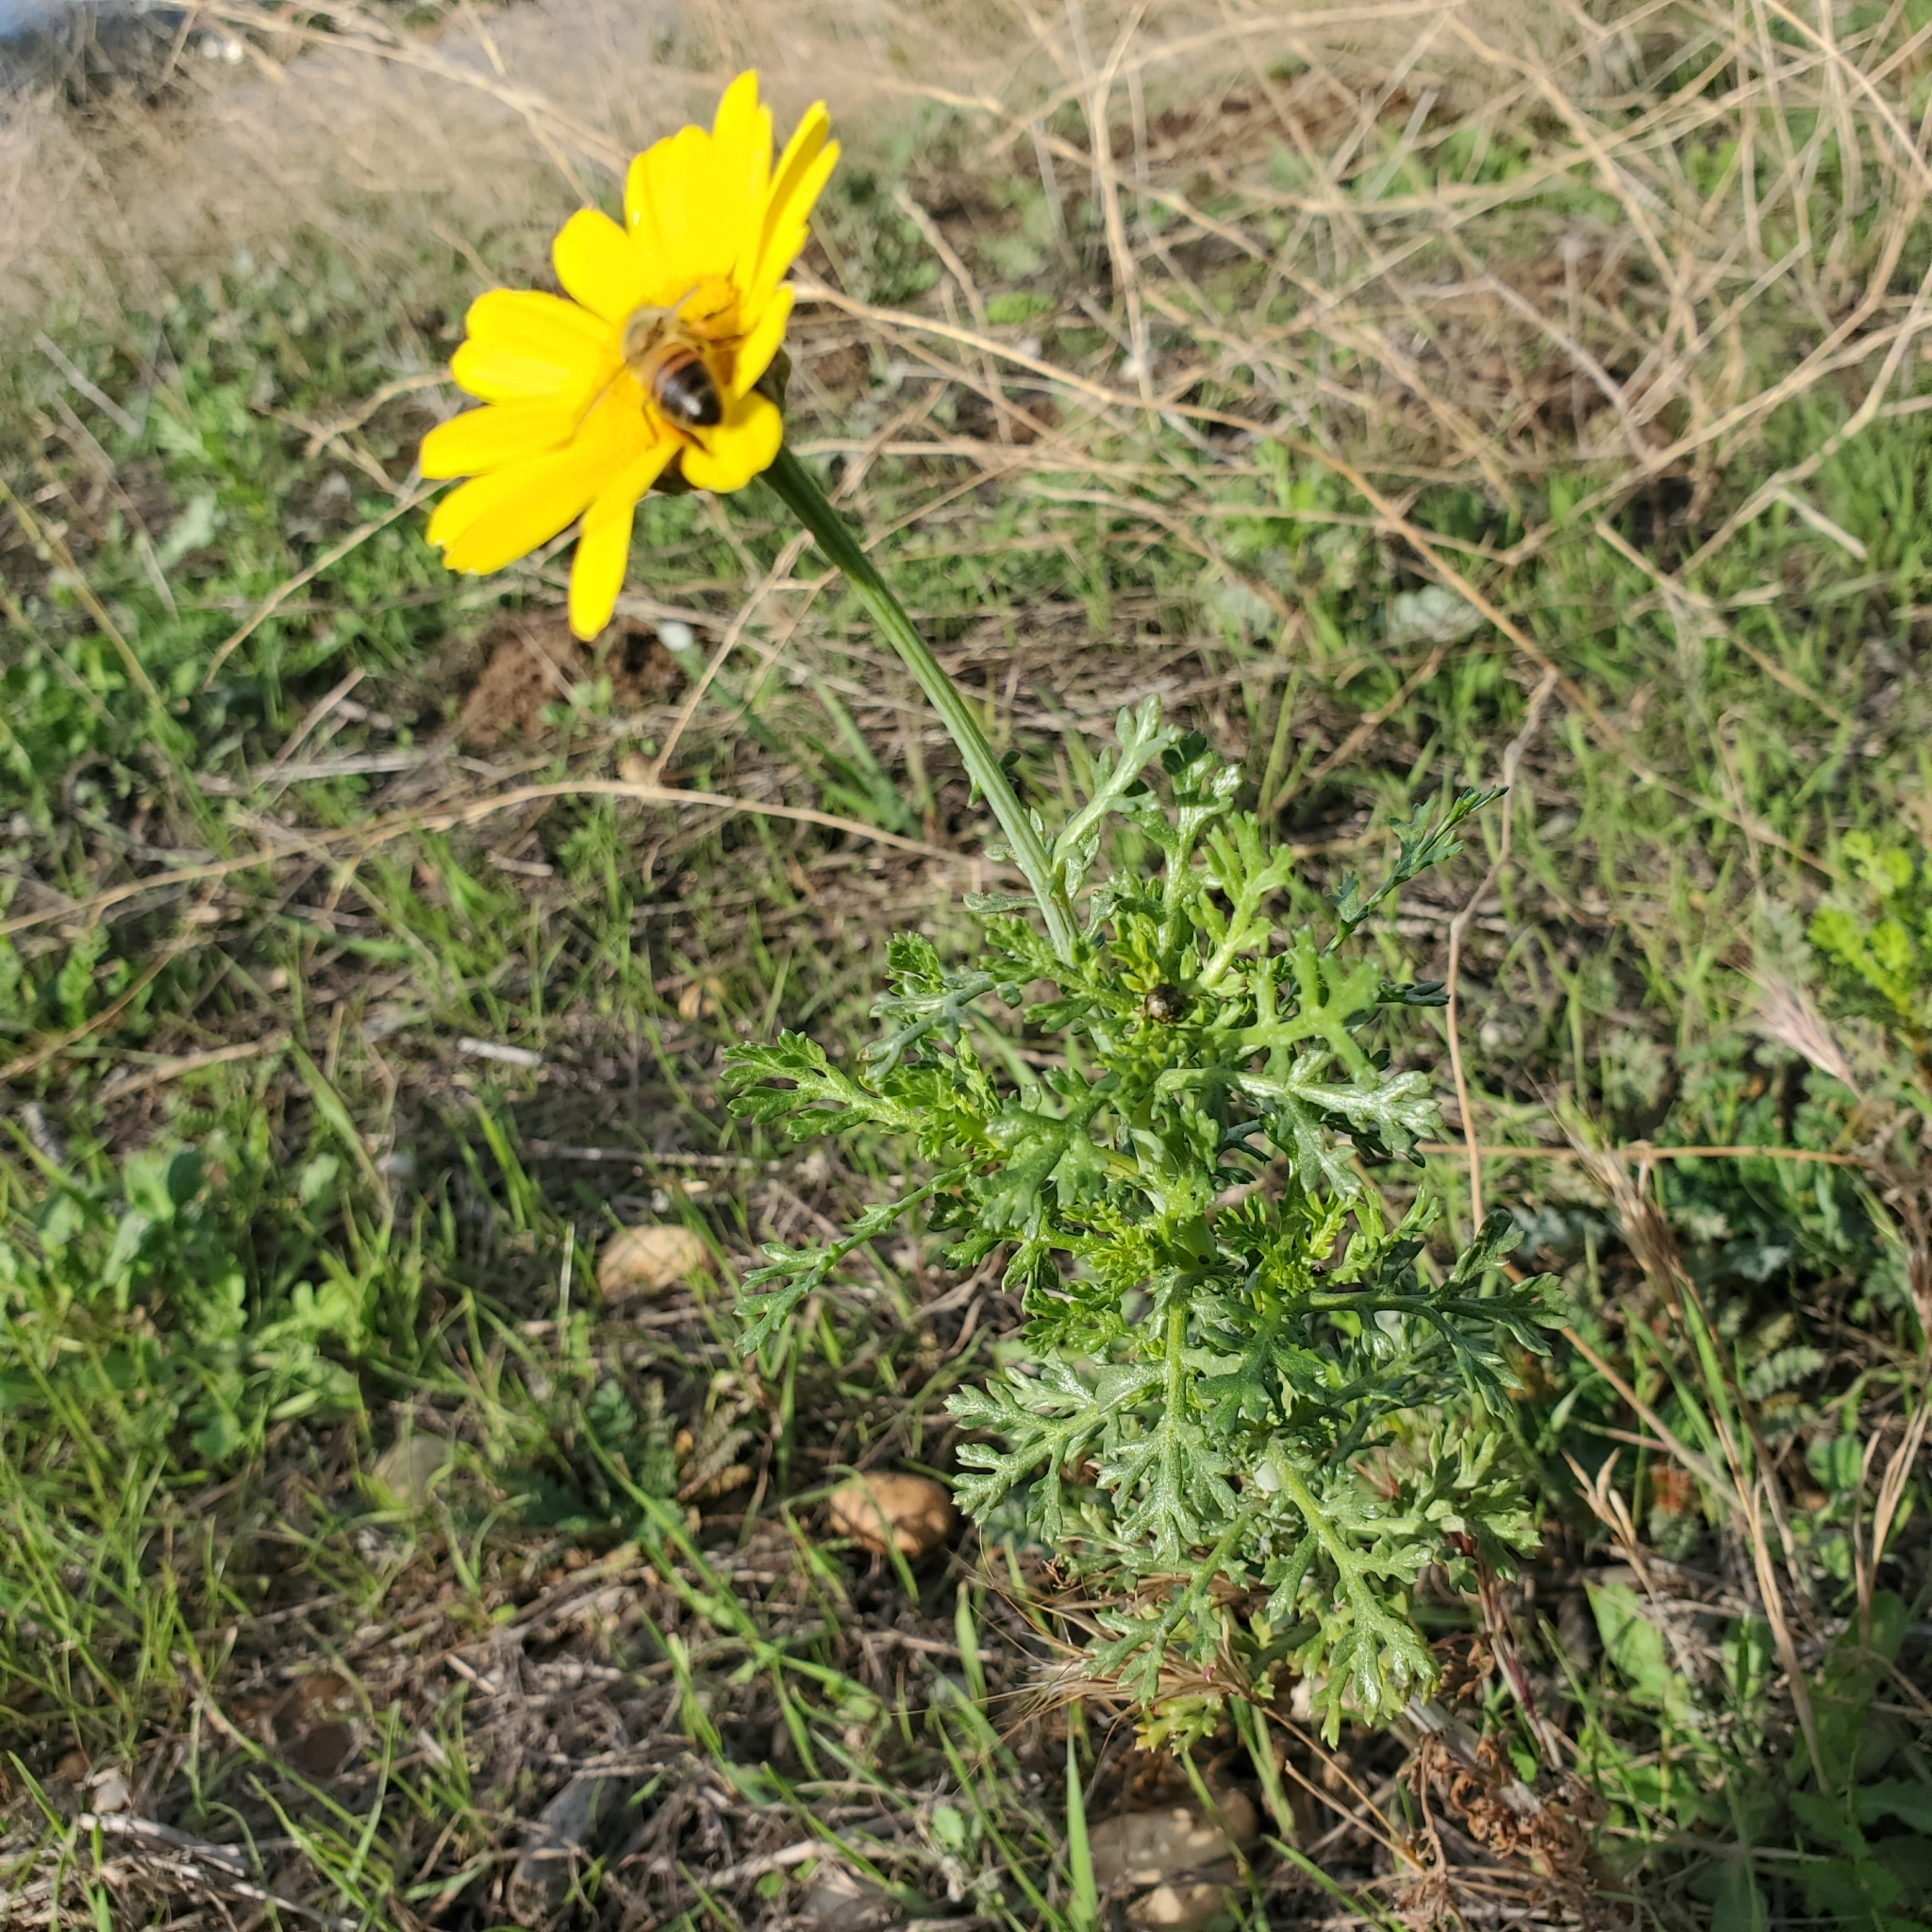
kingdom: Plantae
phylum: Tracheophyta
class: Magnoliopsida
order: Asterales
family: Asteraceae
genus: Glebionis
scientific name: Glebionis coronaria
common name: Crowndaisy
